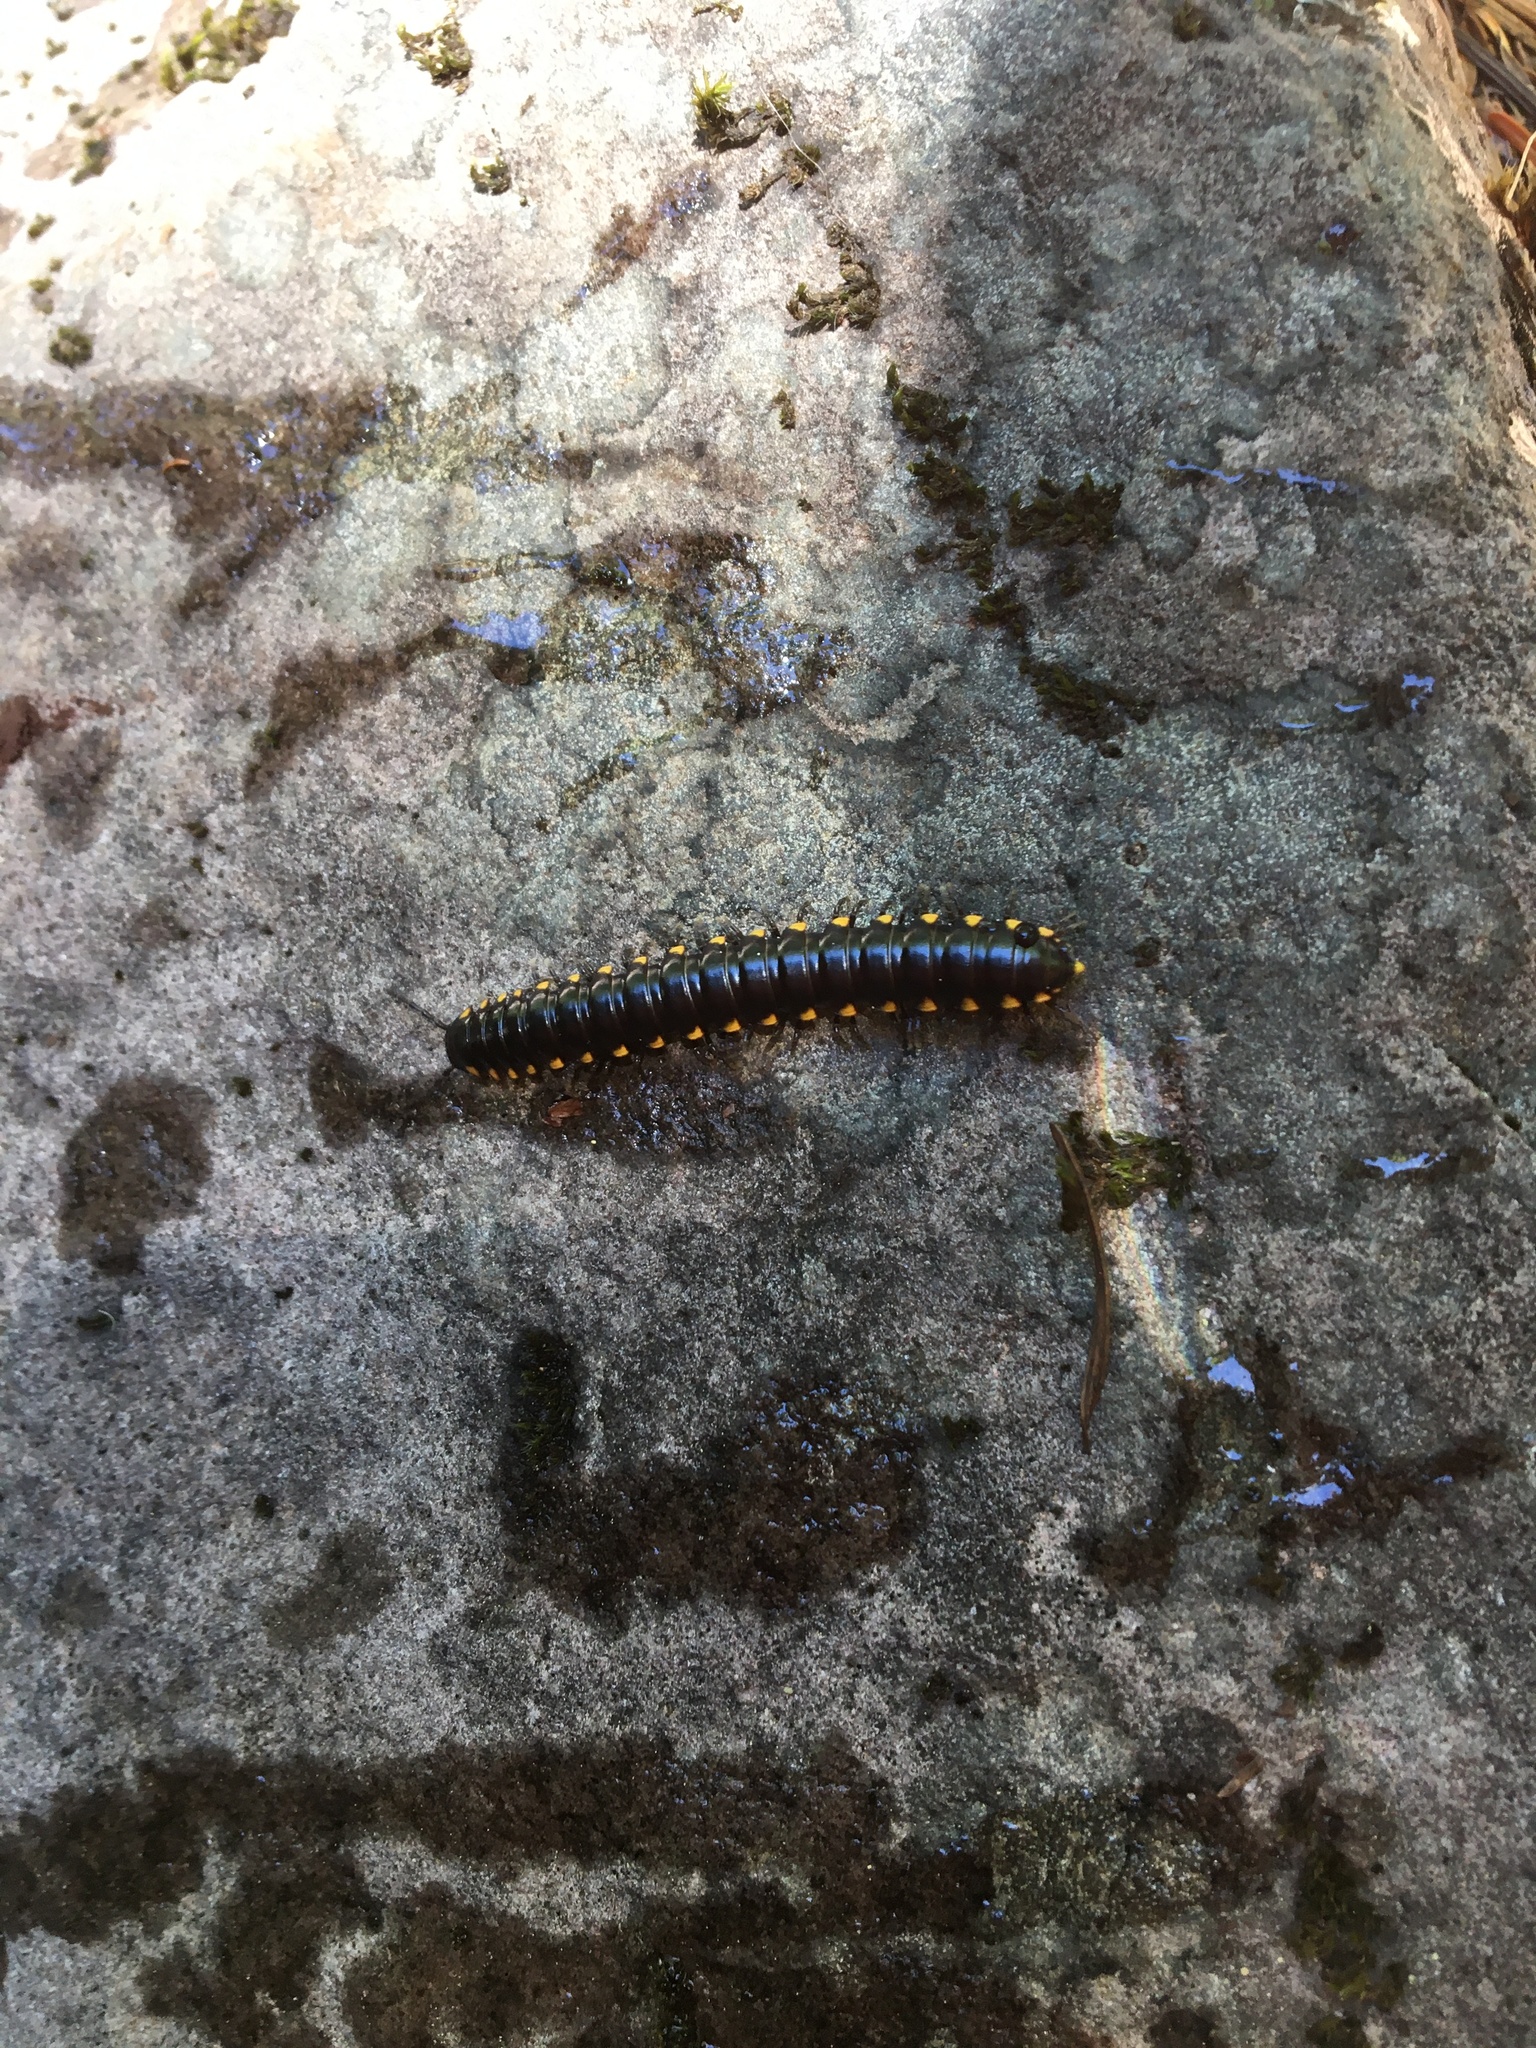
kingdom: Animalia
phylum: Arthropoda
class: Diplopoda
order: Polydesmida
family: Xystodesmidae
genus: Harpaphe
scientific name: Harpaphe haydeniana
